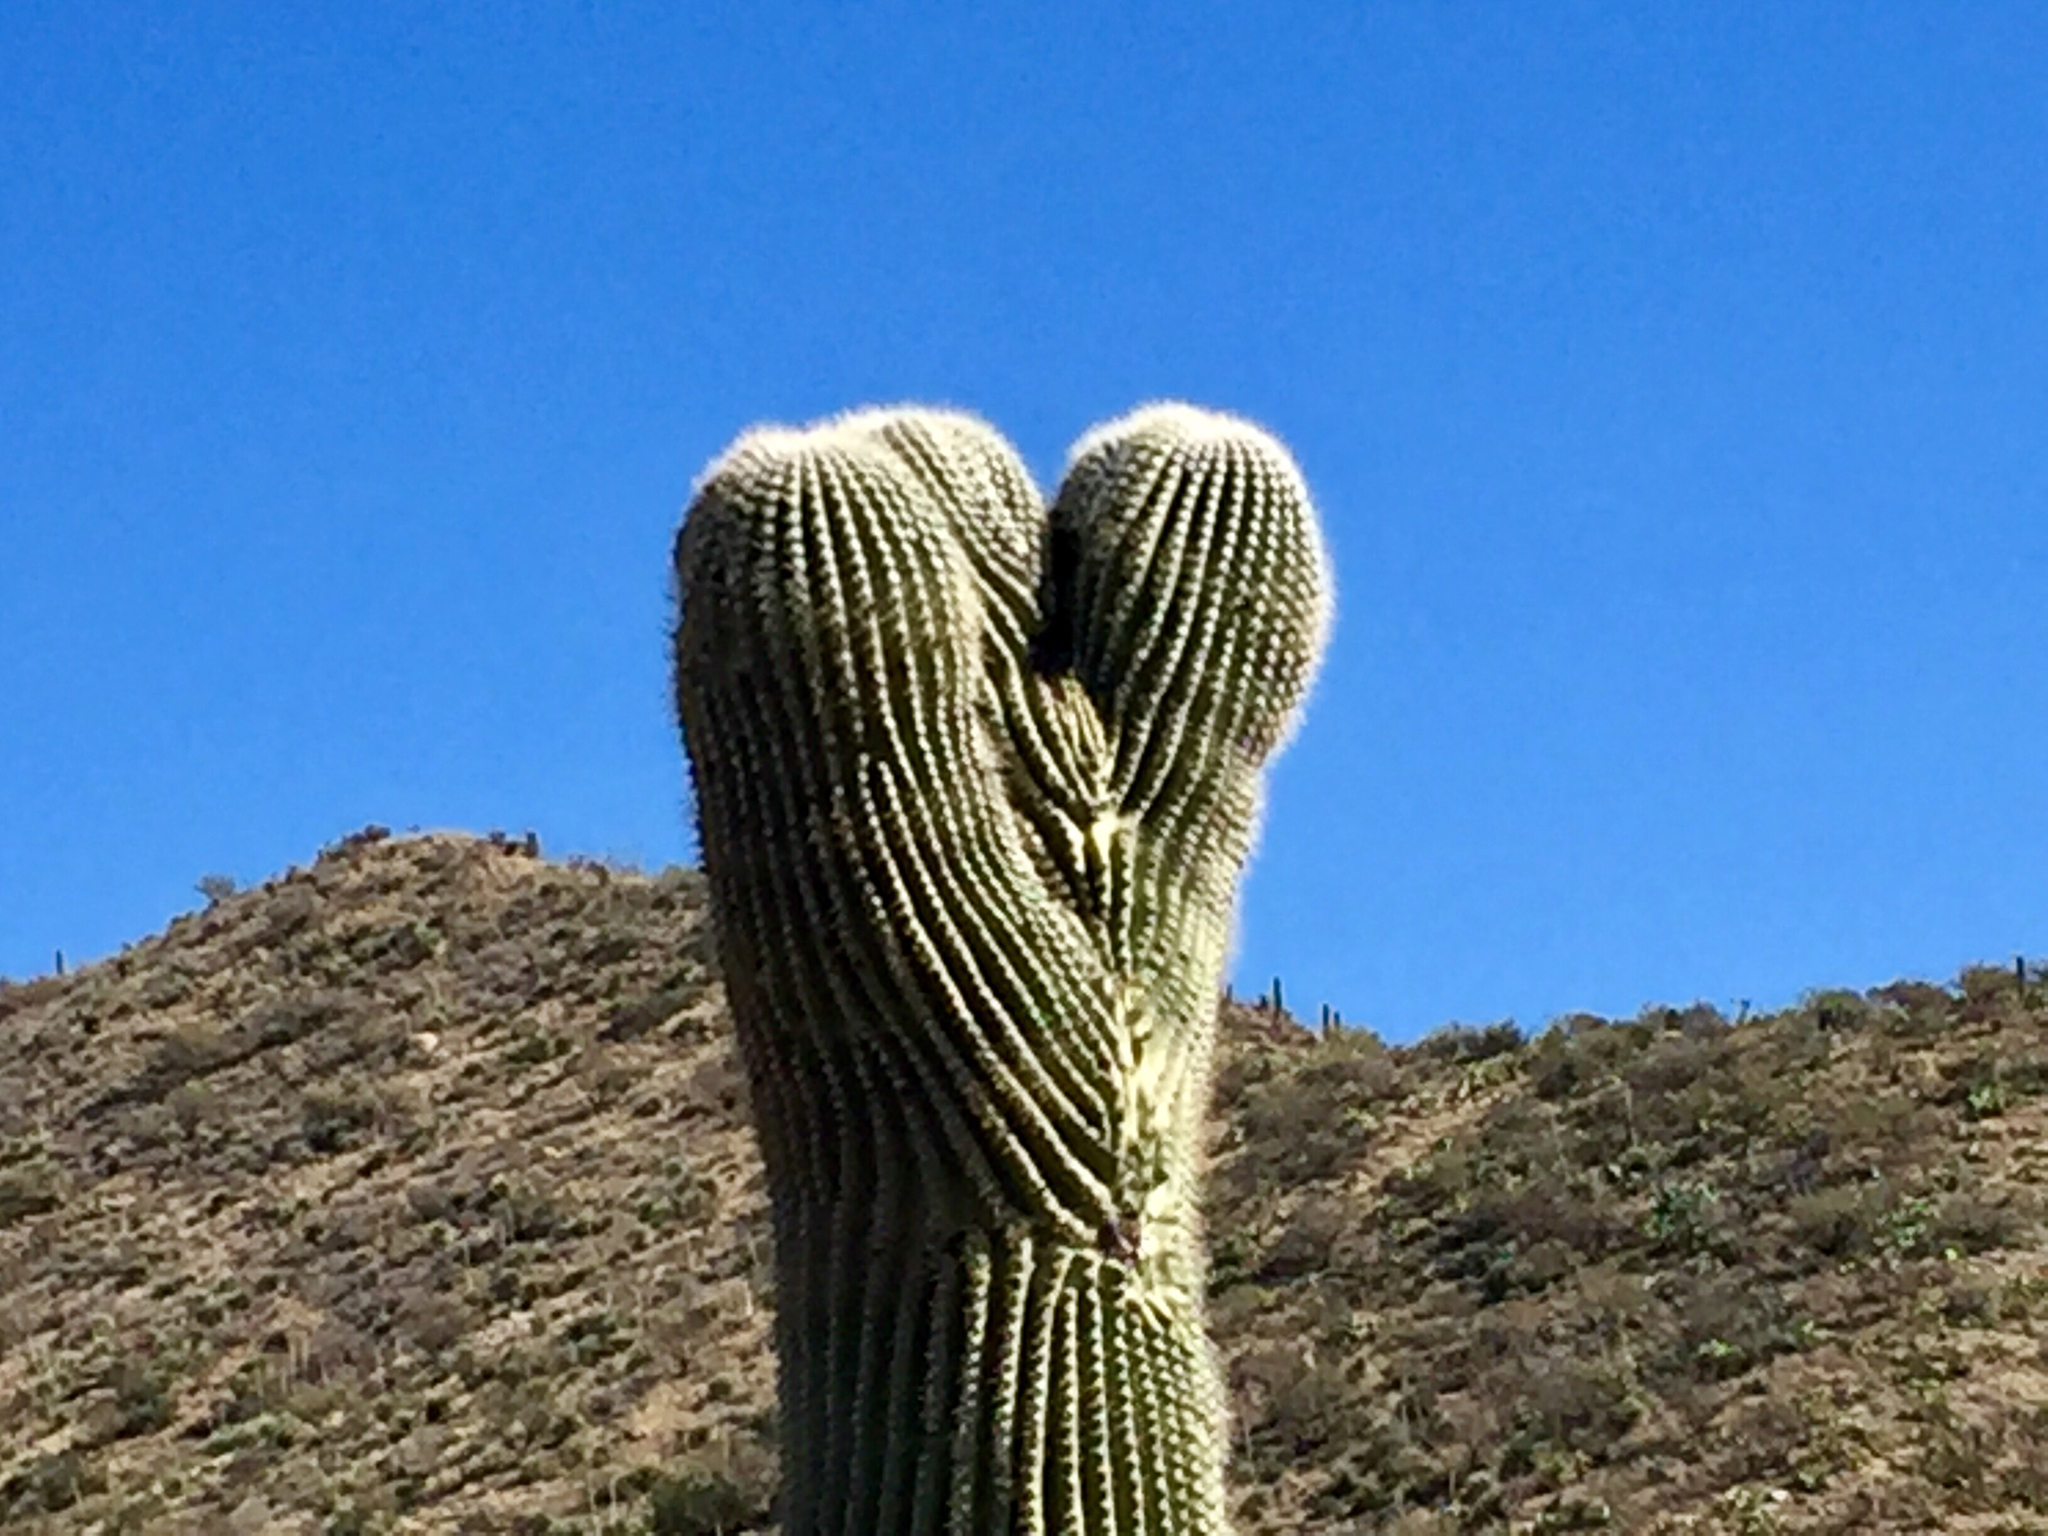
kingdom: Plantae
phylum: Tracheophyta
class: Magnoliopsida
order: Caryophyllales
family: Cactaceae
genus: Carnegiea
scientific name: Carnegiea gigantea
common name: Saguaro
